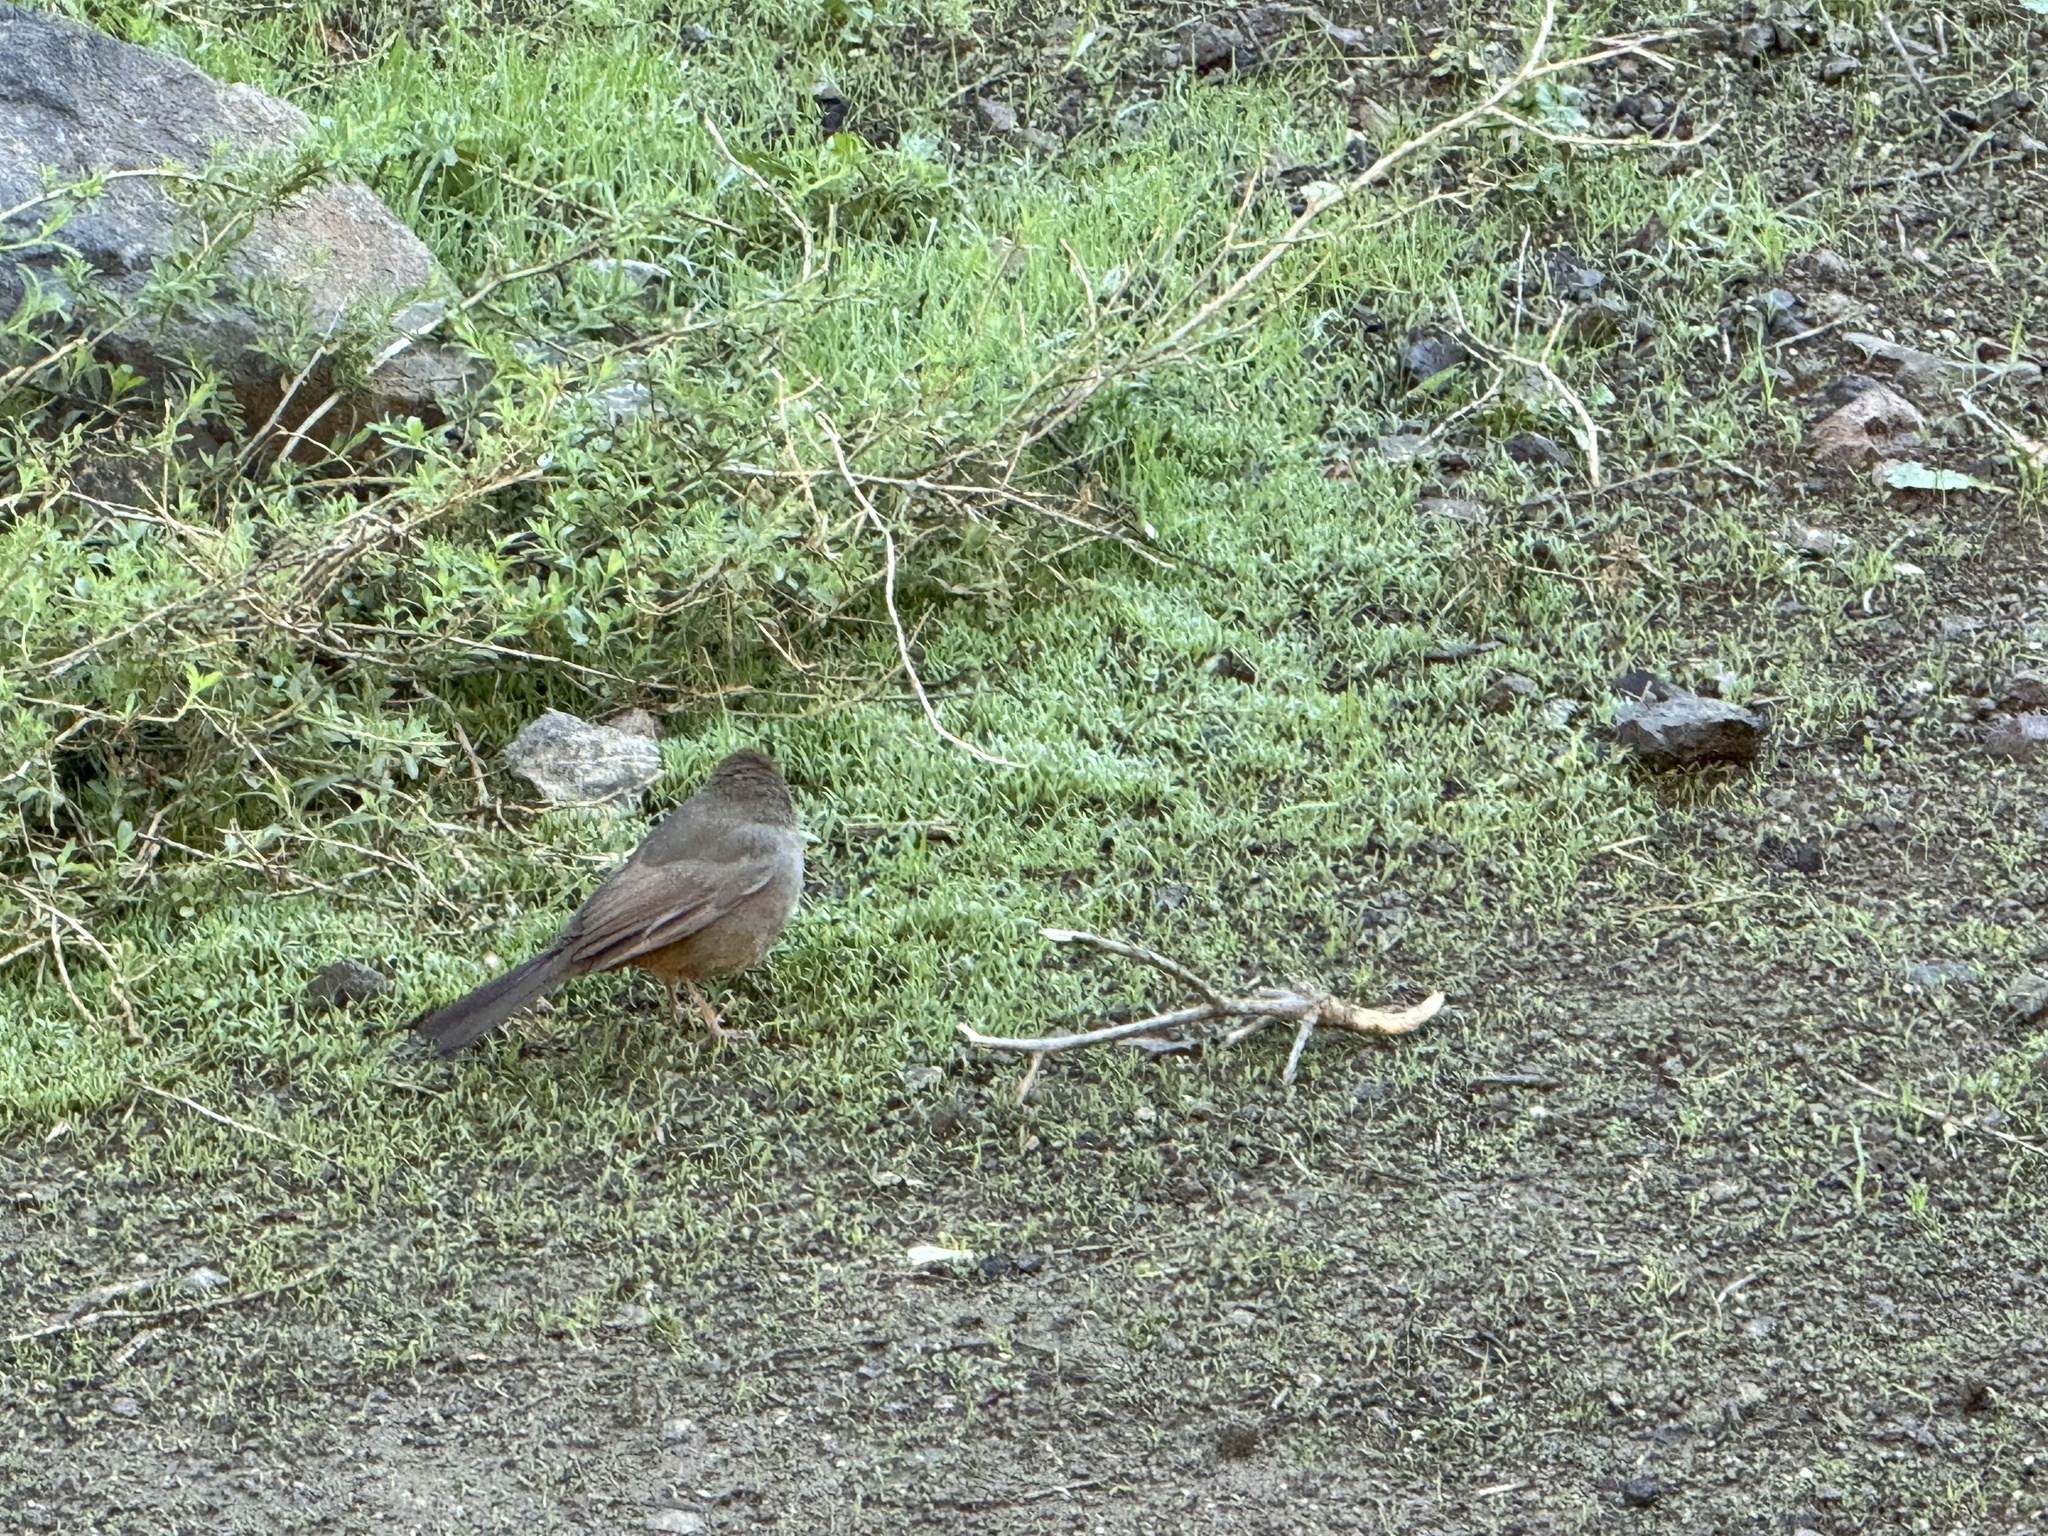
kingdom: Animalia
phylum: Chordata
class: Aves
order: Passeriformes
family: Passerellidae
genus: Melozone
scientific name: Melozone crissalis
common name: California towhee
